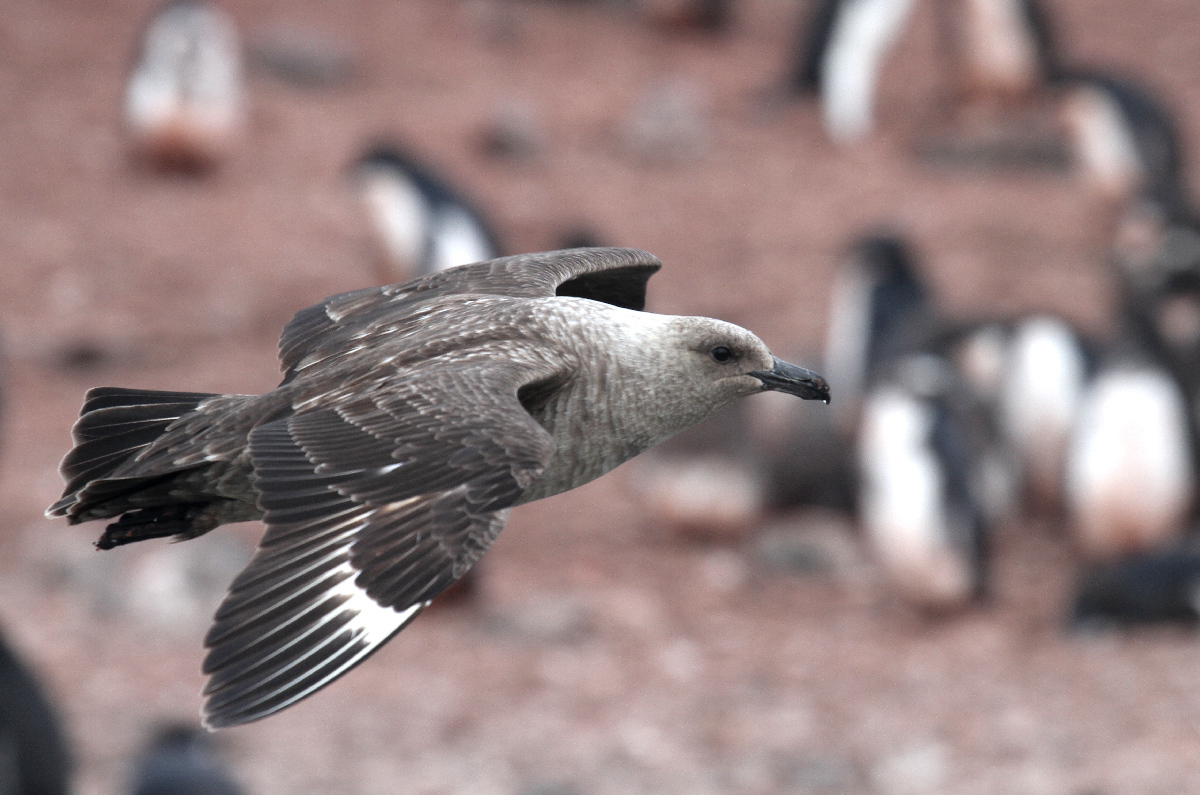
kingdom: Animalia
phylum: Chordata
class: Aves
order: Charadriiformes
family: Stercorariidae
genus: Stercorarius
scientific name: Stercorarius maccormicki
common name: South polar skua
